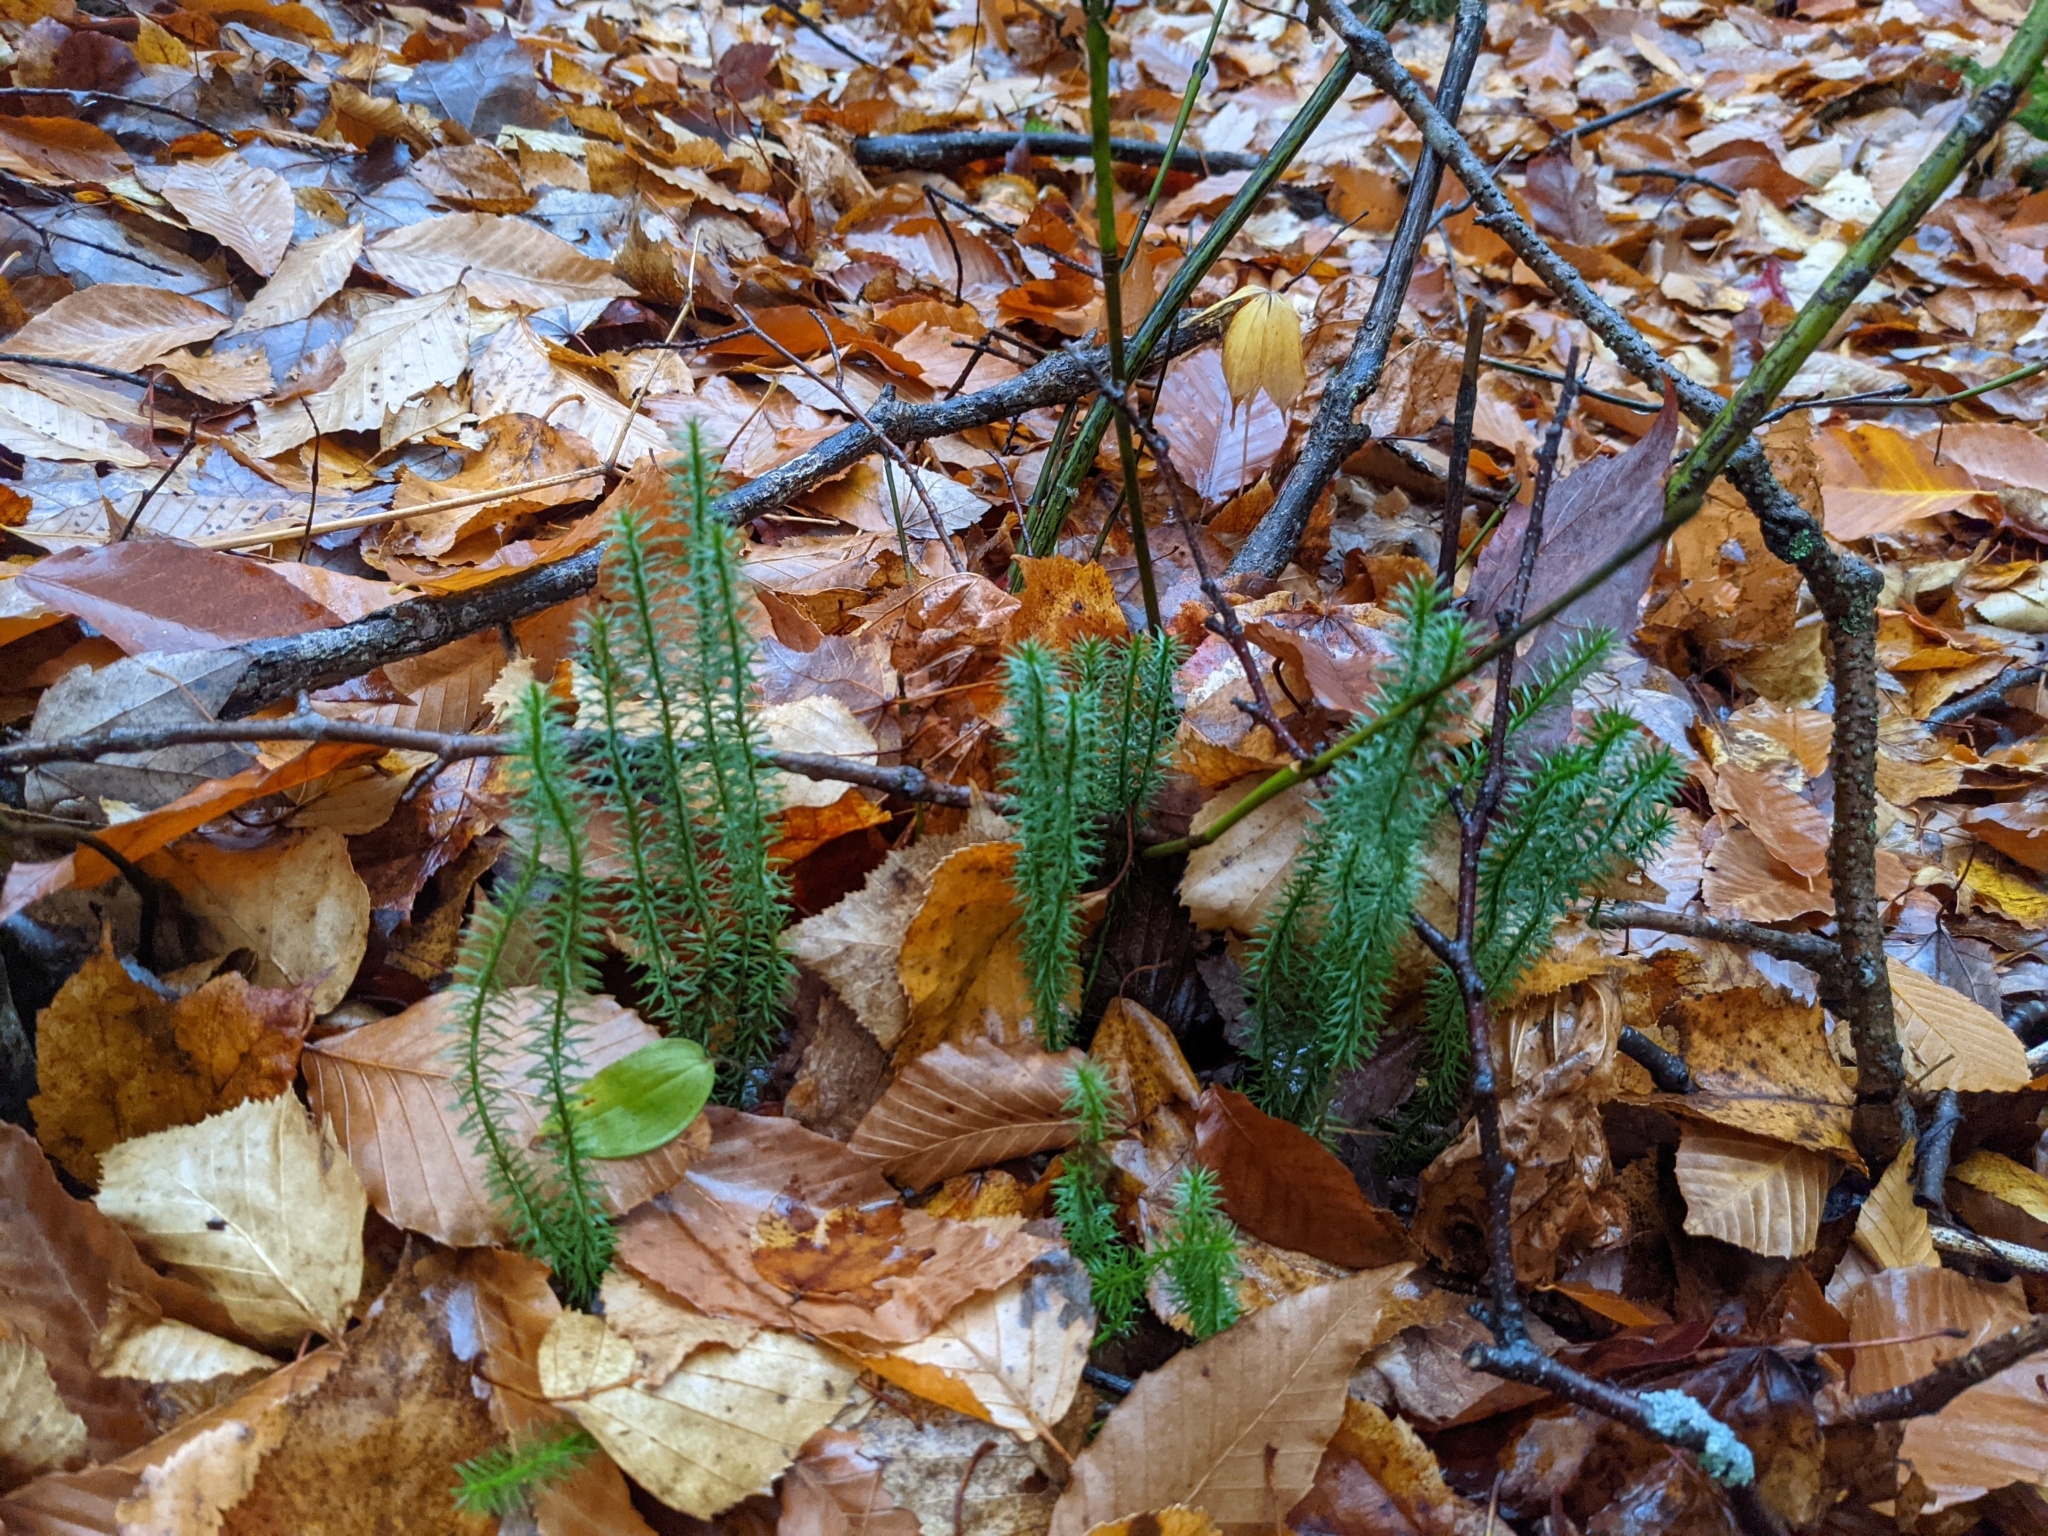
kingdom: Plantae
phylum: Tracheophyta
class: Lycopodiopsida
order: Lycopodiales
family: Lycopodiaceae
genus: Spinulum
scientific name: Spinulum annotinum
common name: Interrupted club-moss
